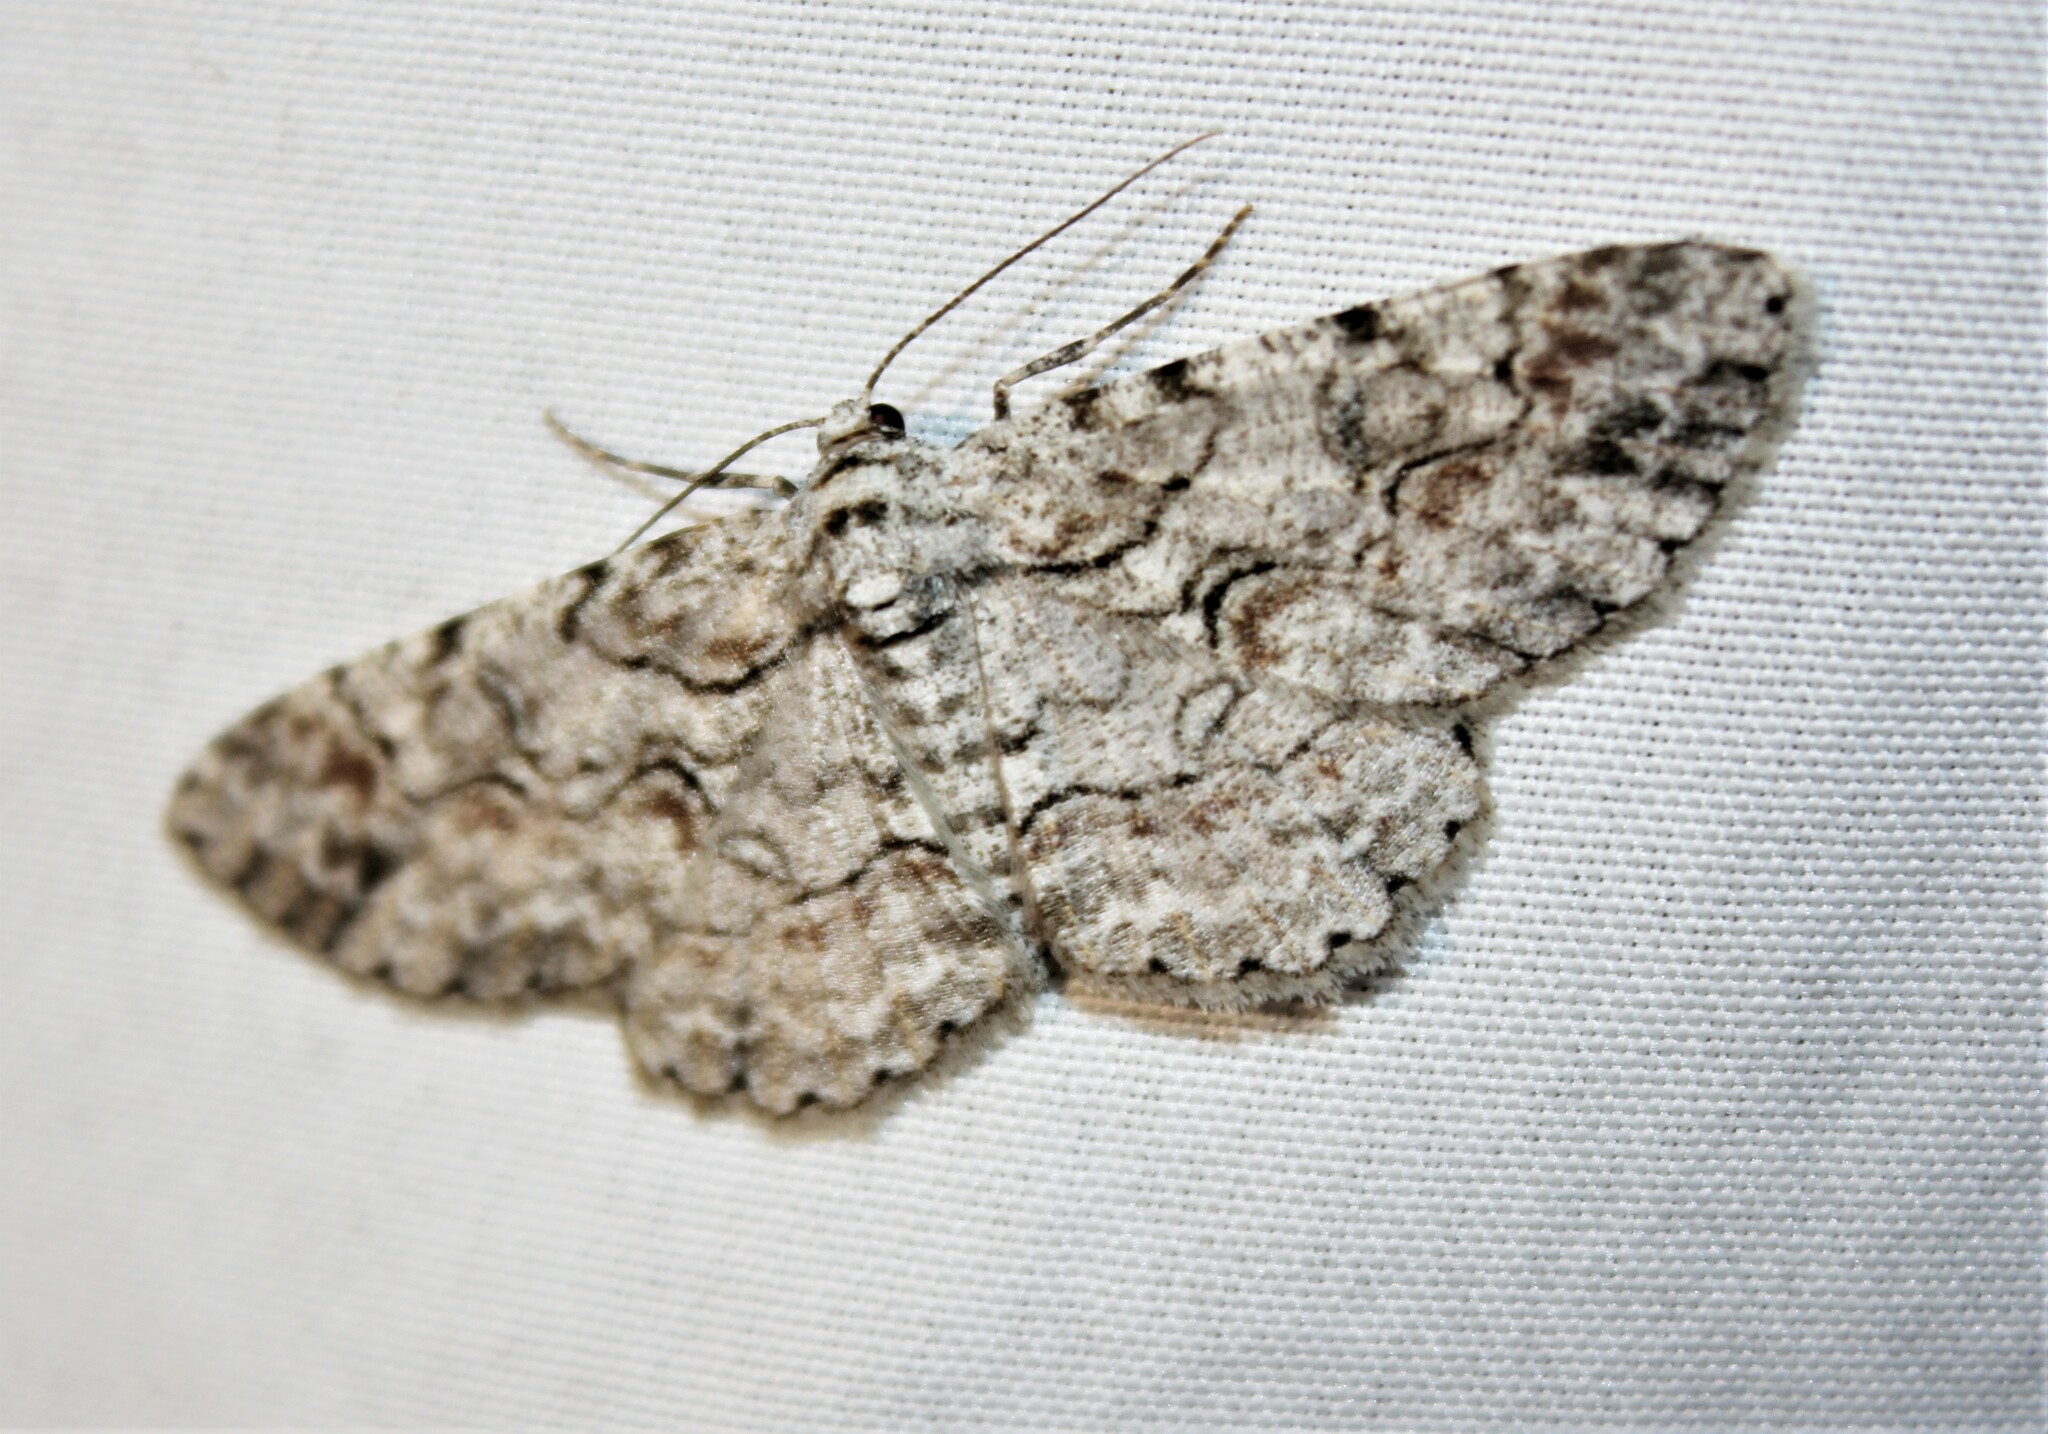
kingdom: Animalia
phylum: Arthropoda
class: Insecta
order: Lepidoptera
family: Geometridae
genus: Iridopsis
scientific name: Iridopsis defectaria
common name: Brown-shaded gray
